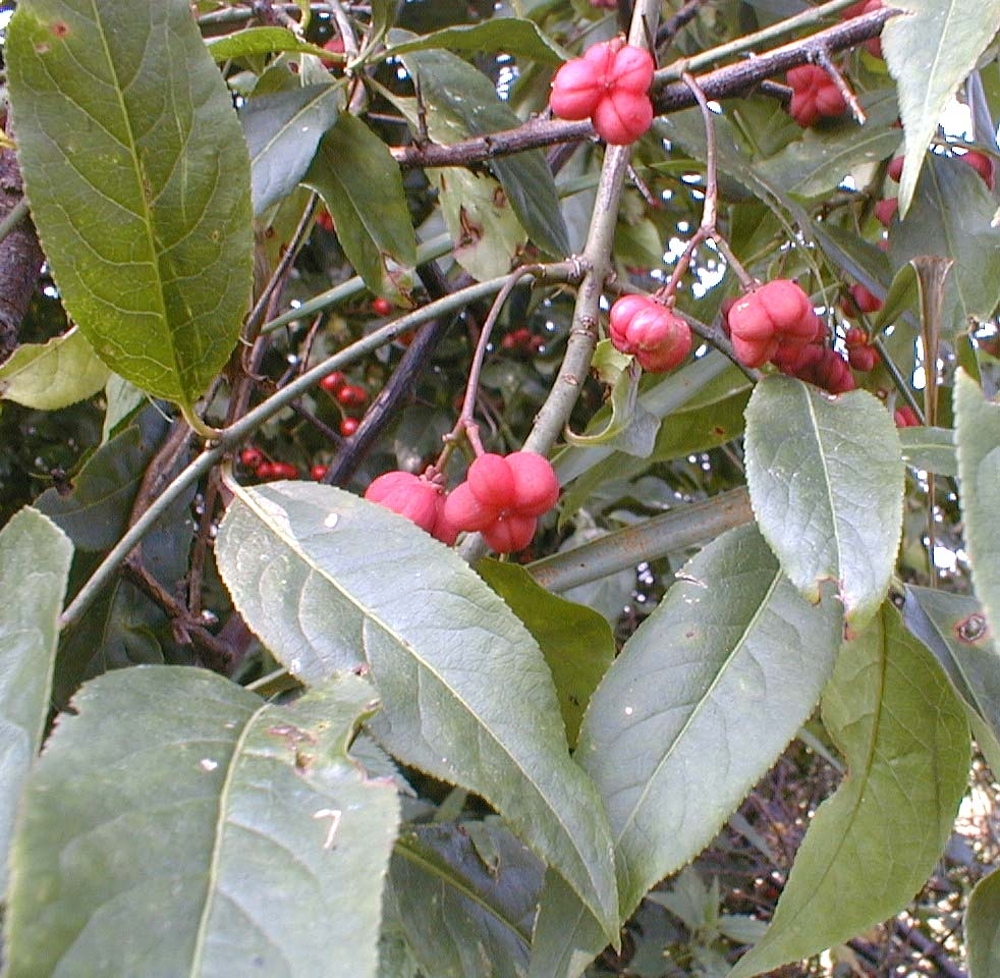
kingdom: Plantae
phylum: Tracheophyta
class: Magnoliopsida
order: Celastrales
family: Celastraceae
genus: Euonymus
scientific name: Euonymus europaeus
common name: Spindle
